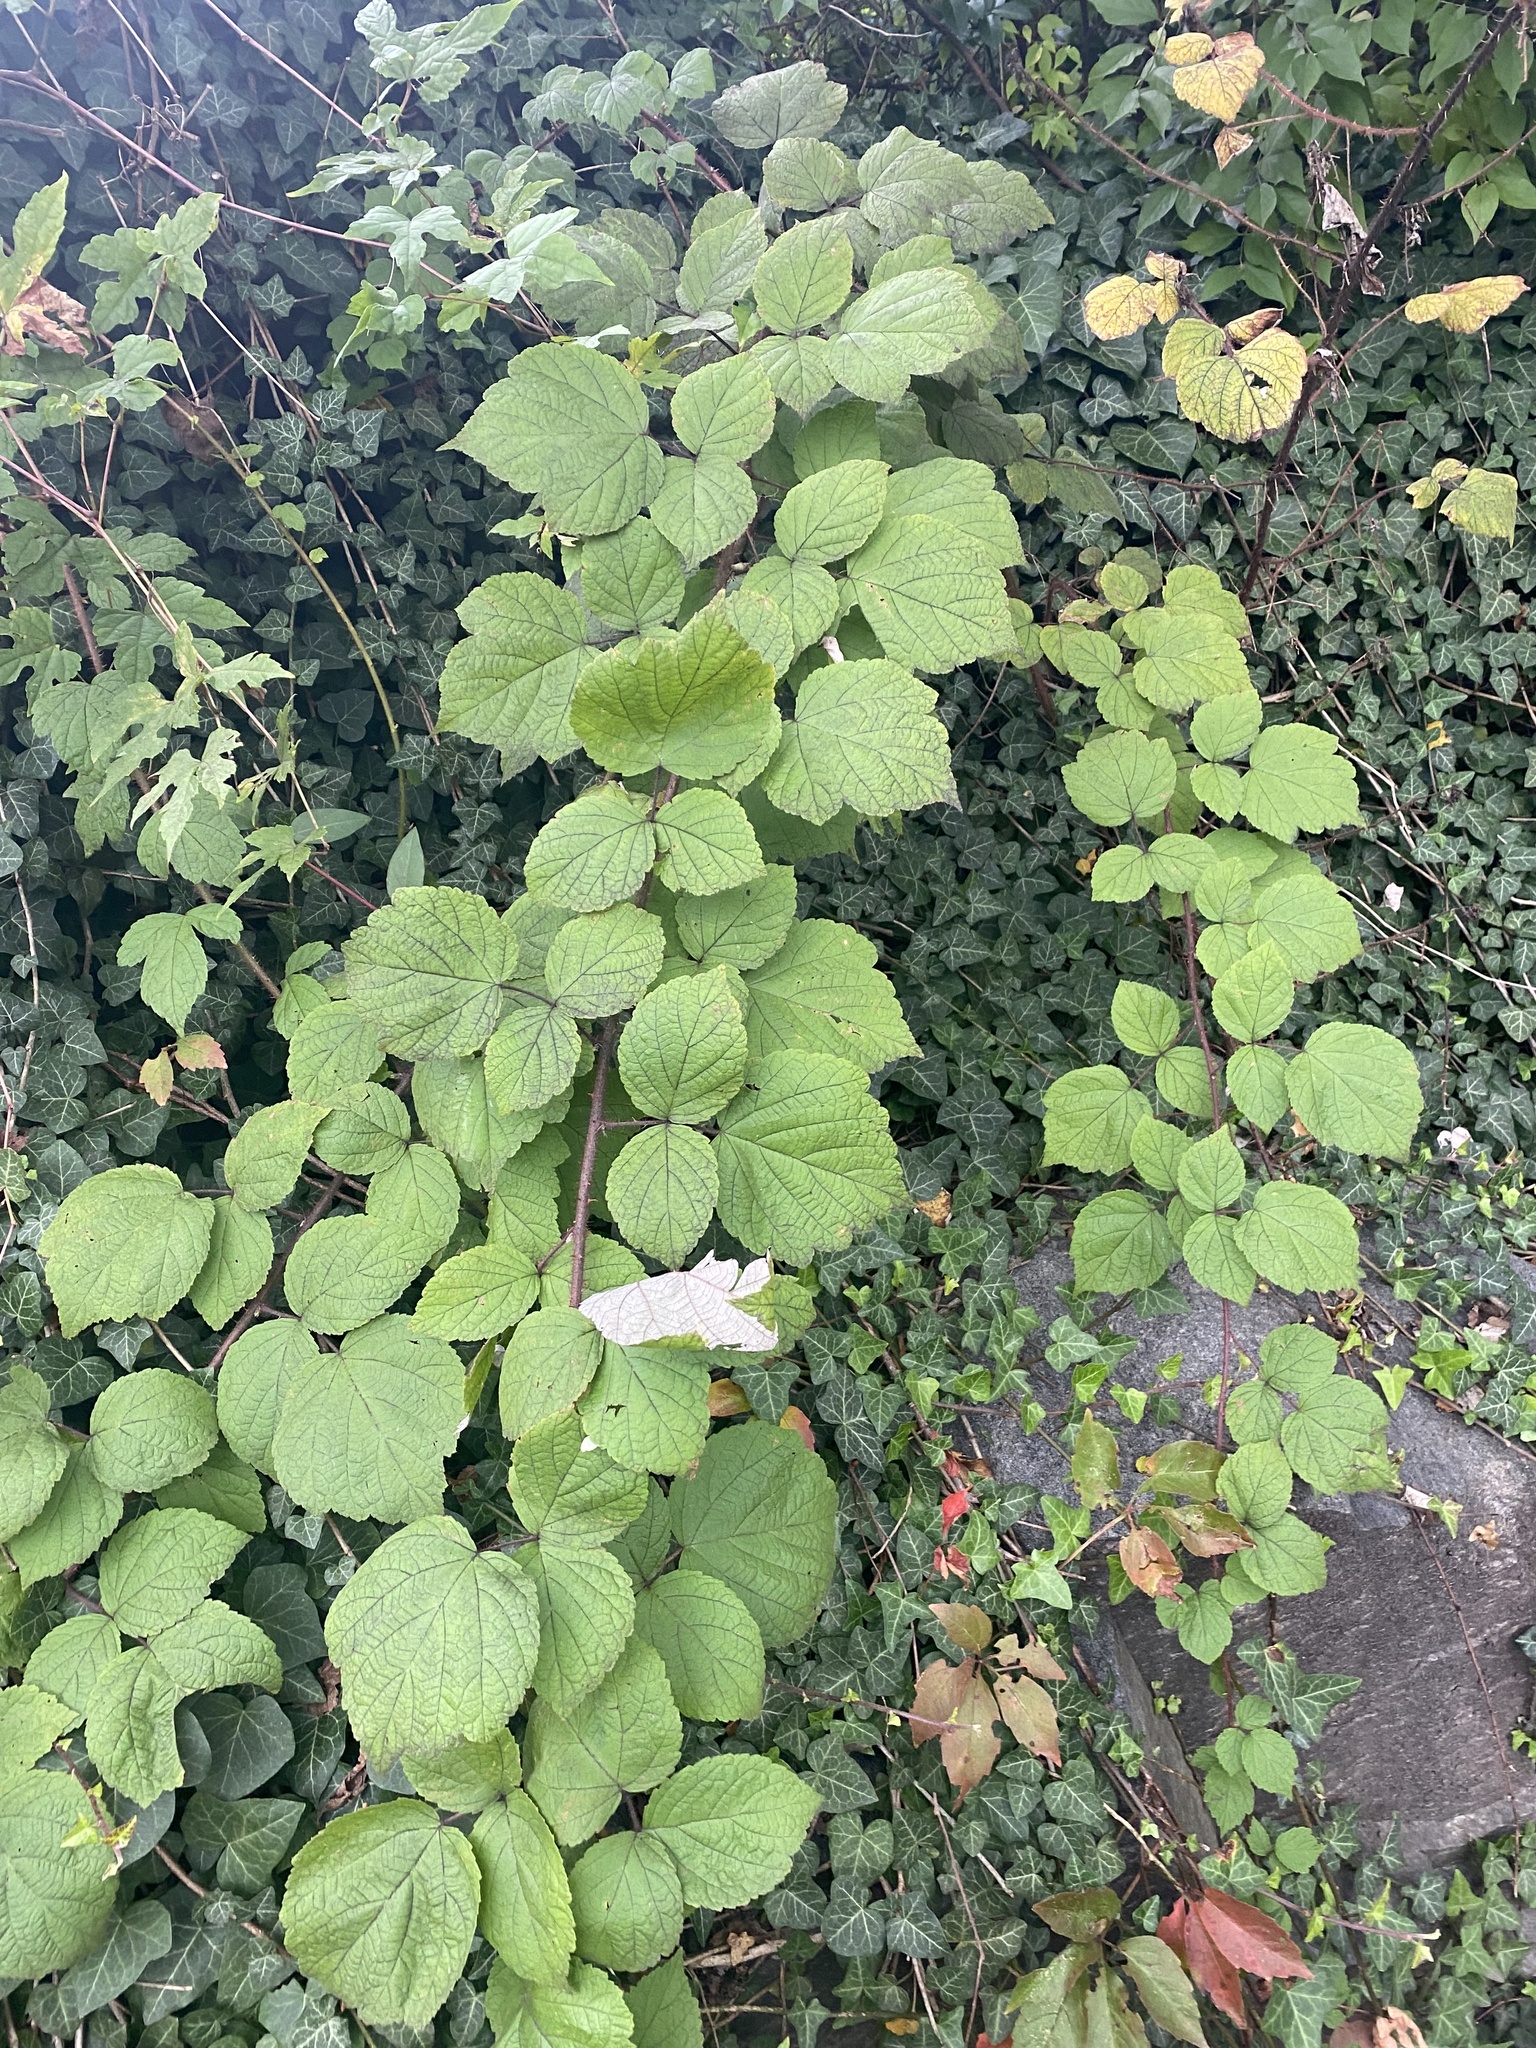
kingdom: Plantae
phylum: Tracheophyta
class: Magnoliopsida
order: Rosales
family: Rosaceae
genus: Rubus
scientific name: Rubus phoenicolasius
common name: Japanese wineberry
